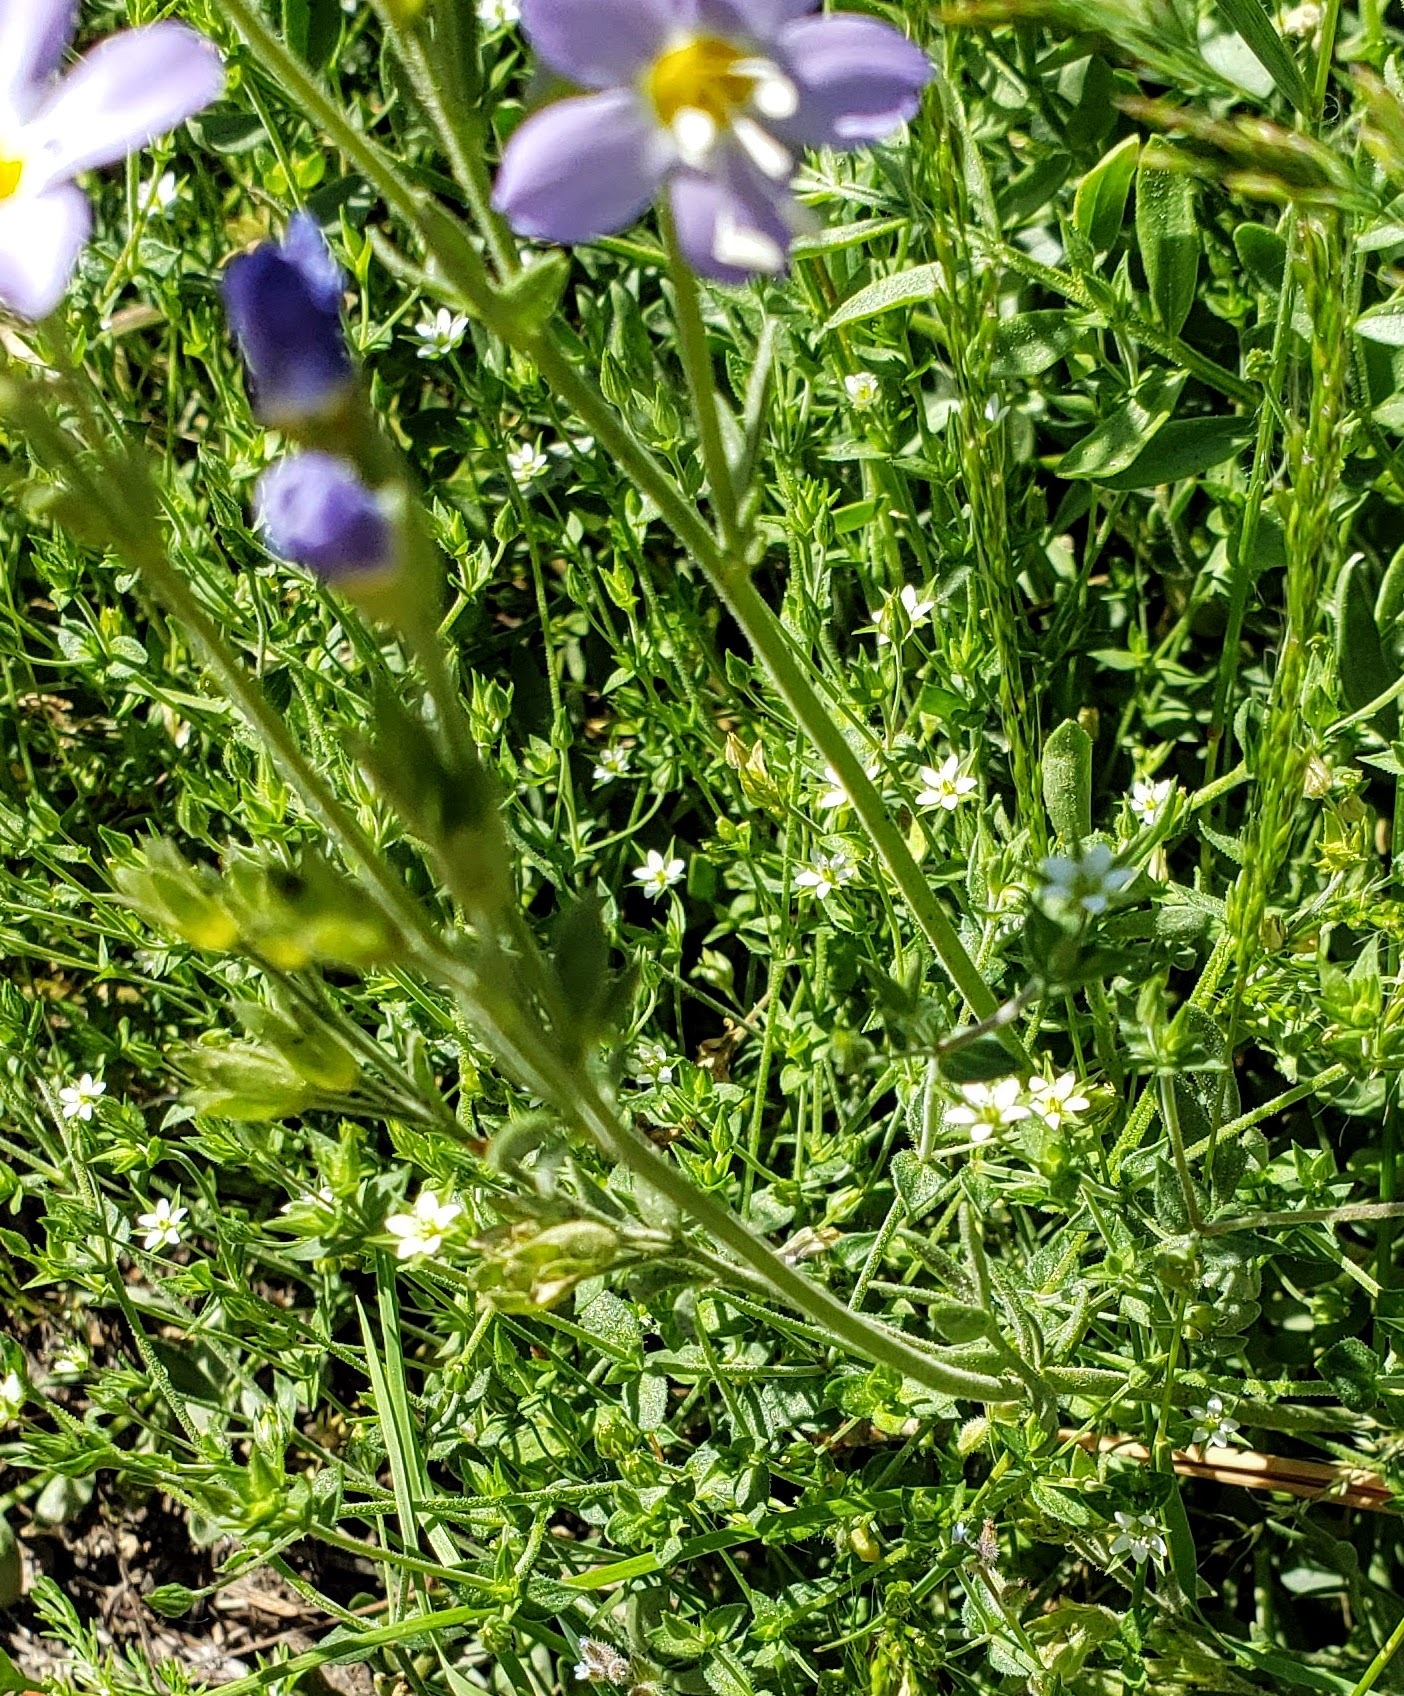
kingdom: Plantae
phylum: Tracheophyta
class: Magnoliopsida
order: Ericales
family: Polemoniaceae
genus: Polemonium
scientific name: Polemonium pulcherrimum
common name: Short jacob's-ladder
